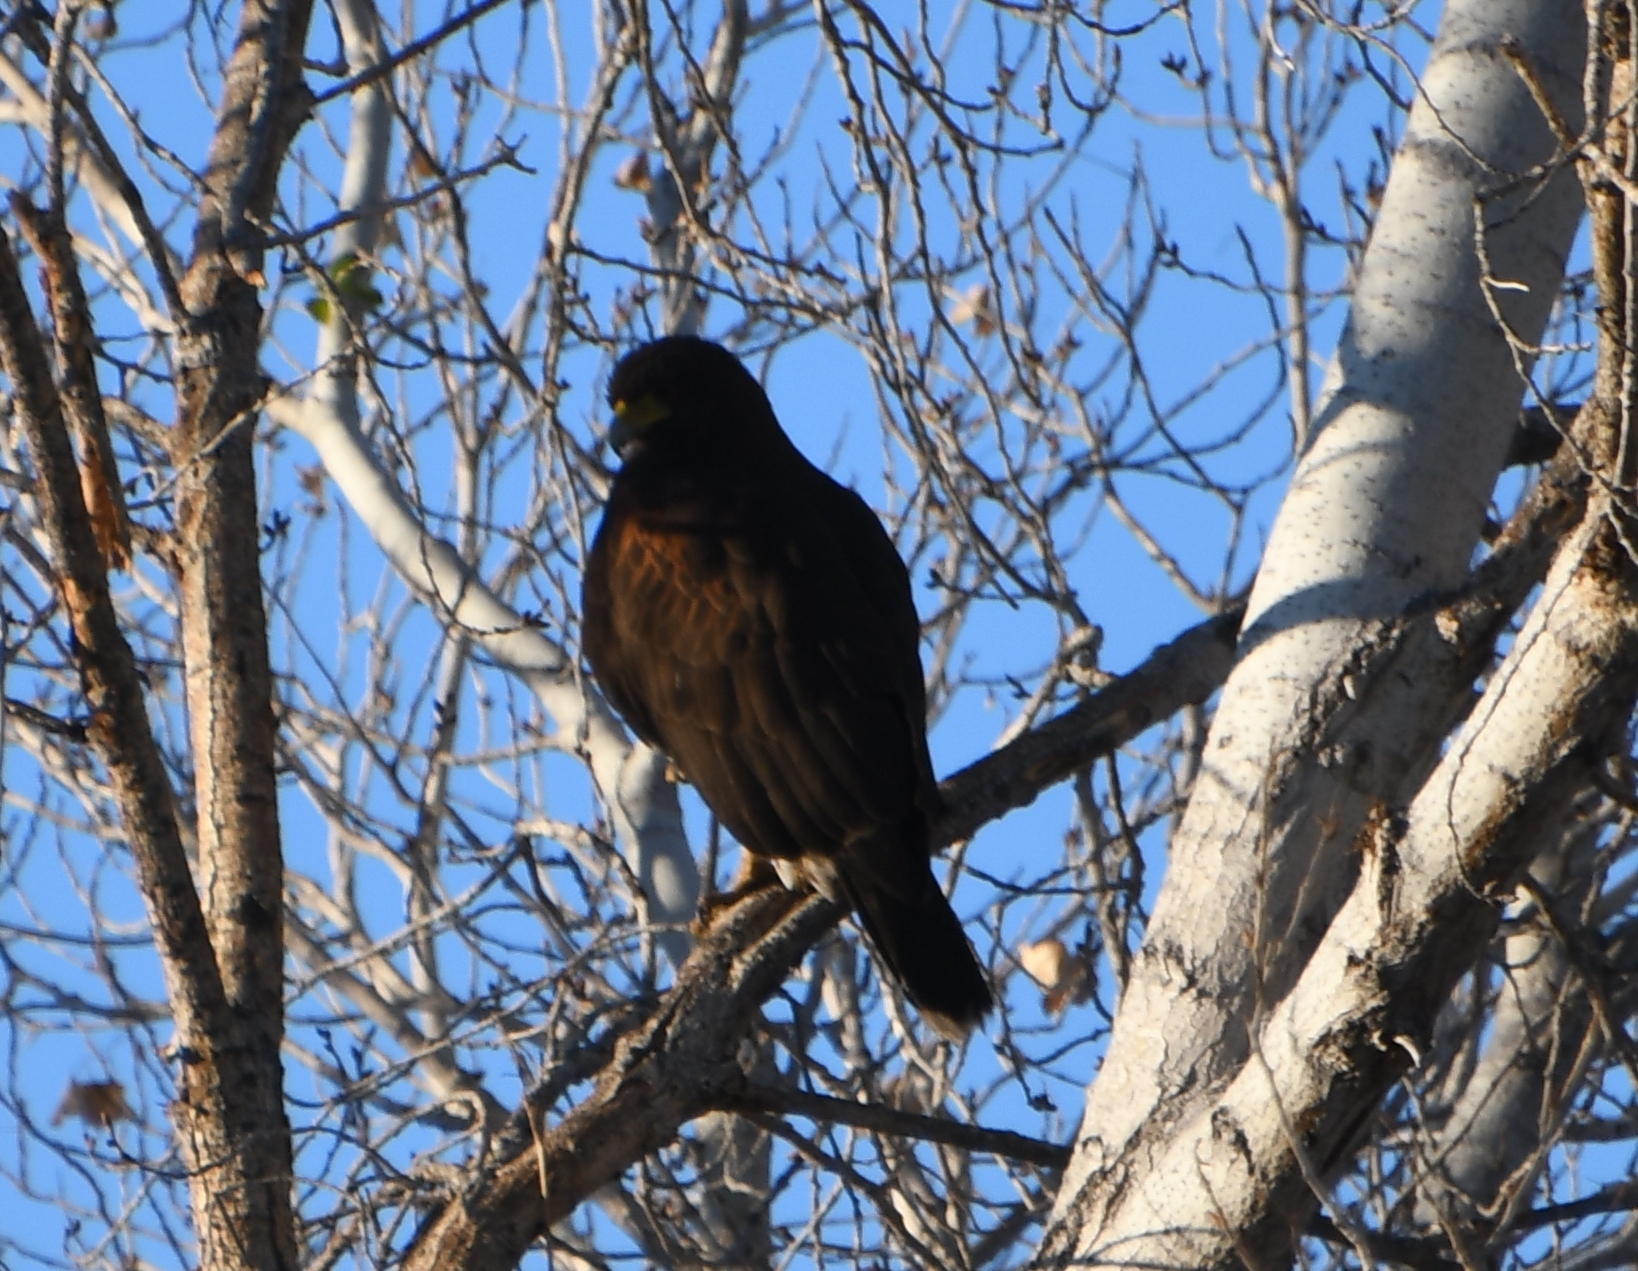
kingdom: Animalia
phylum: Chordata
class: Aves
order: Accipitriformes
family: Accipitridae
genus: Parabuteo
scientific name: Parabuteo unicinctus
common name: Harris's hawk
